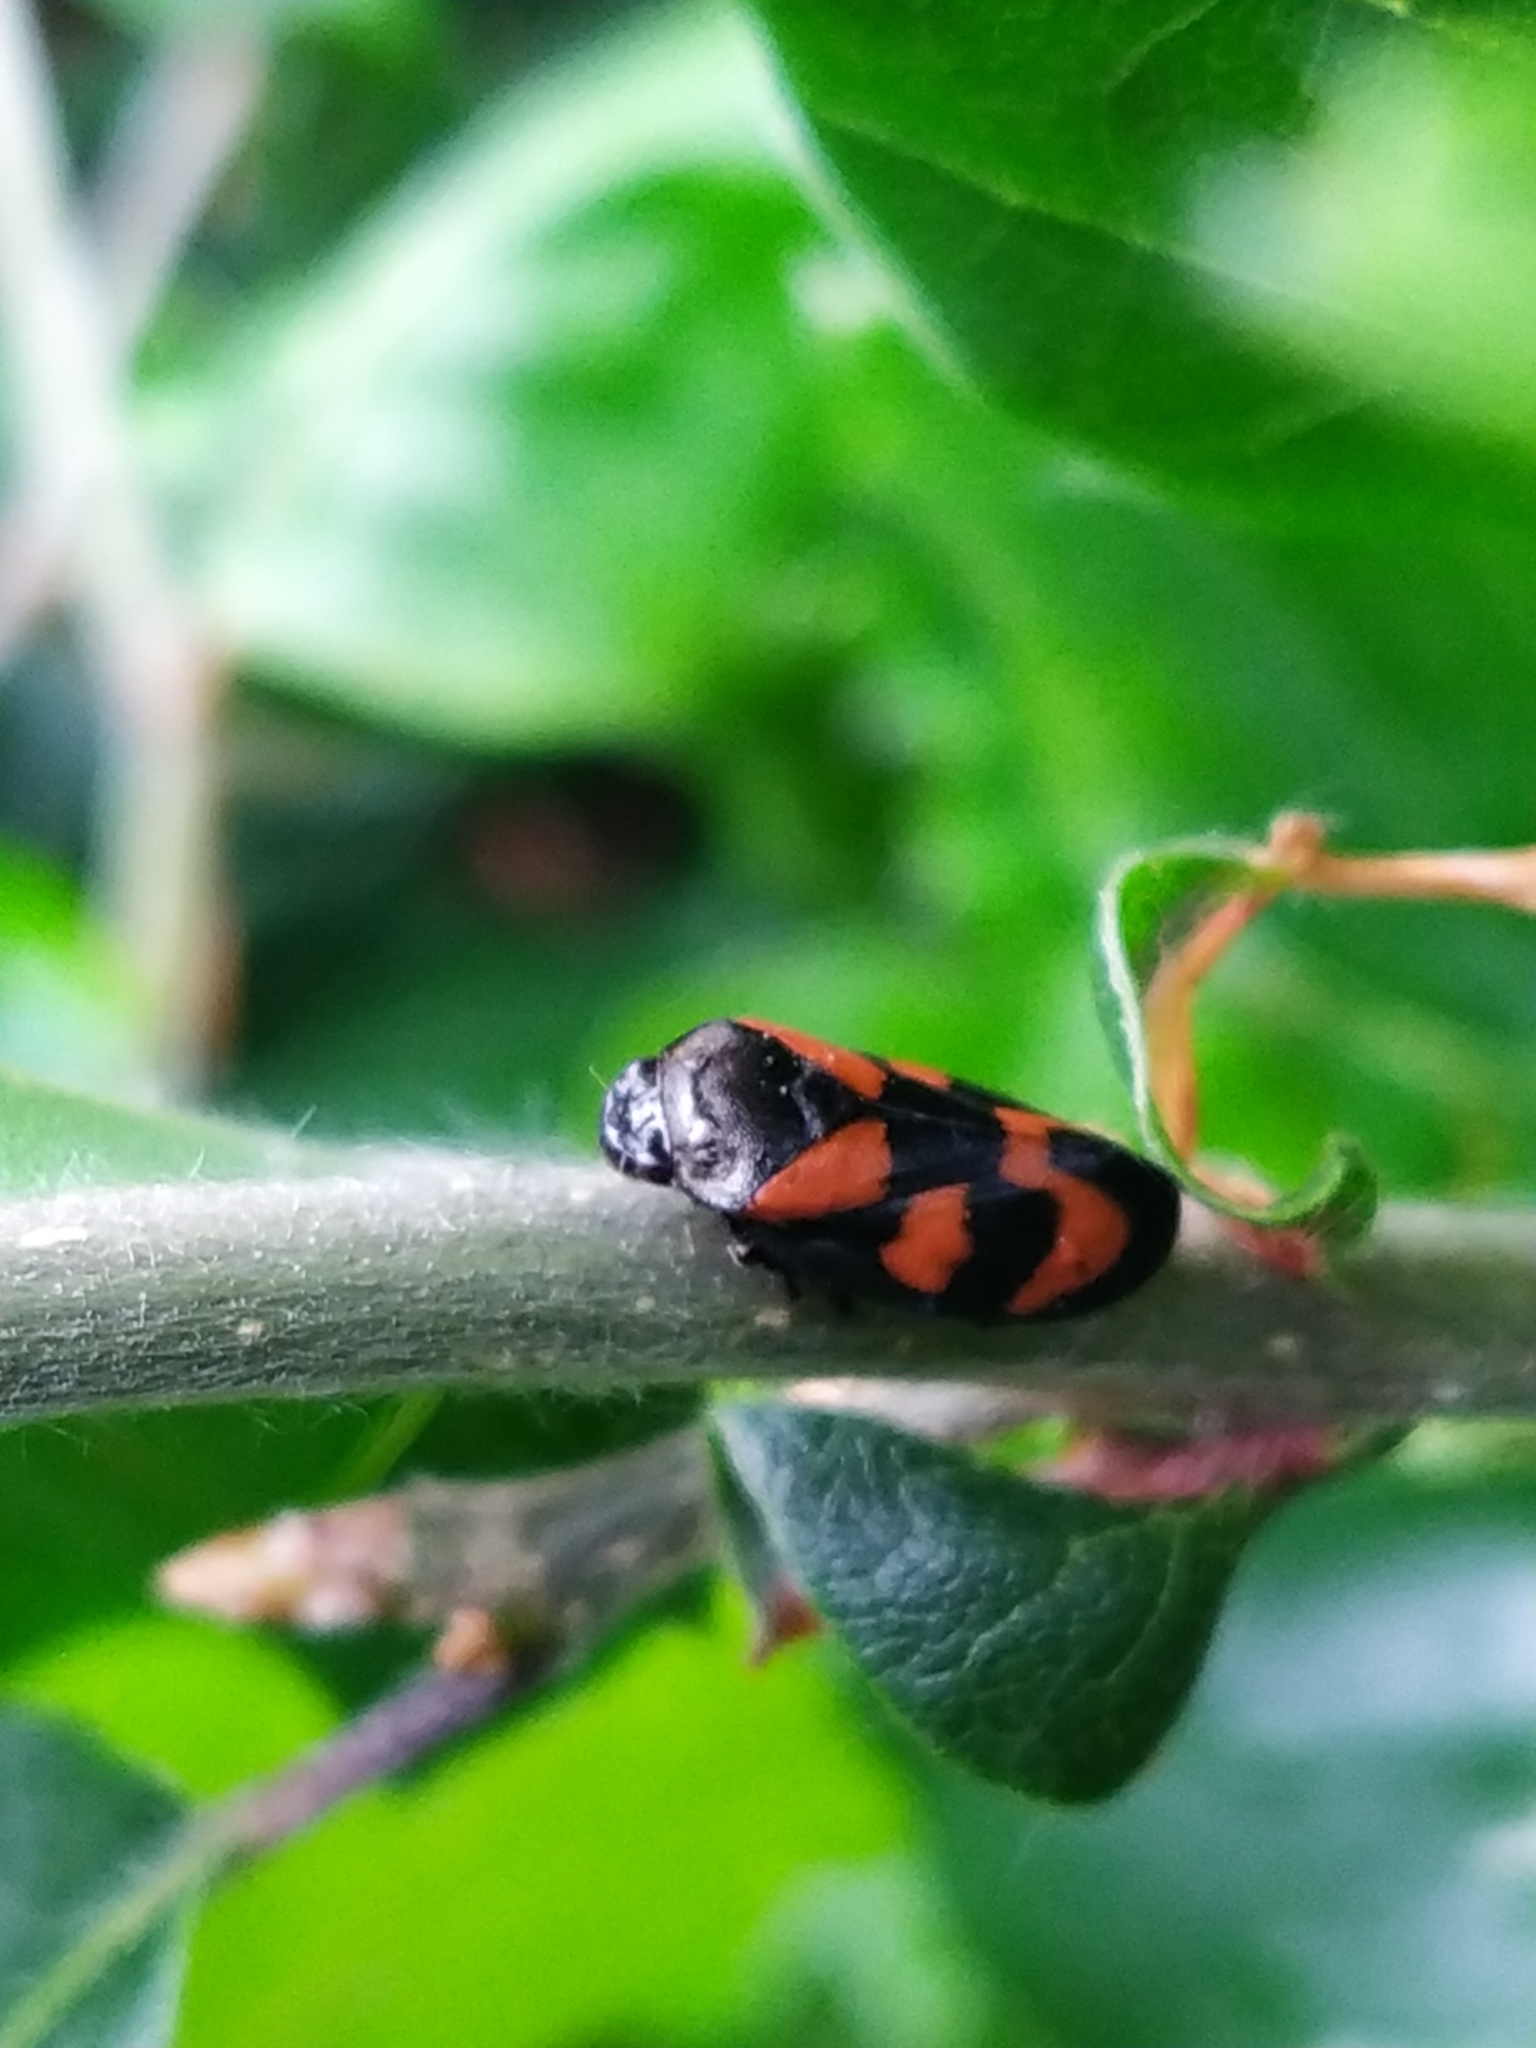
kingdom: Animalia
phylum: Arthropoda
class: Insecta
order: Hemiptera
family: Cercopidae
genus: Cercopis
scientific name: Cercopis vulnerata
